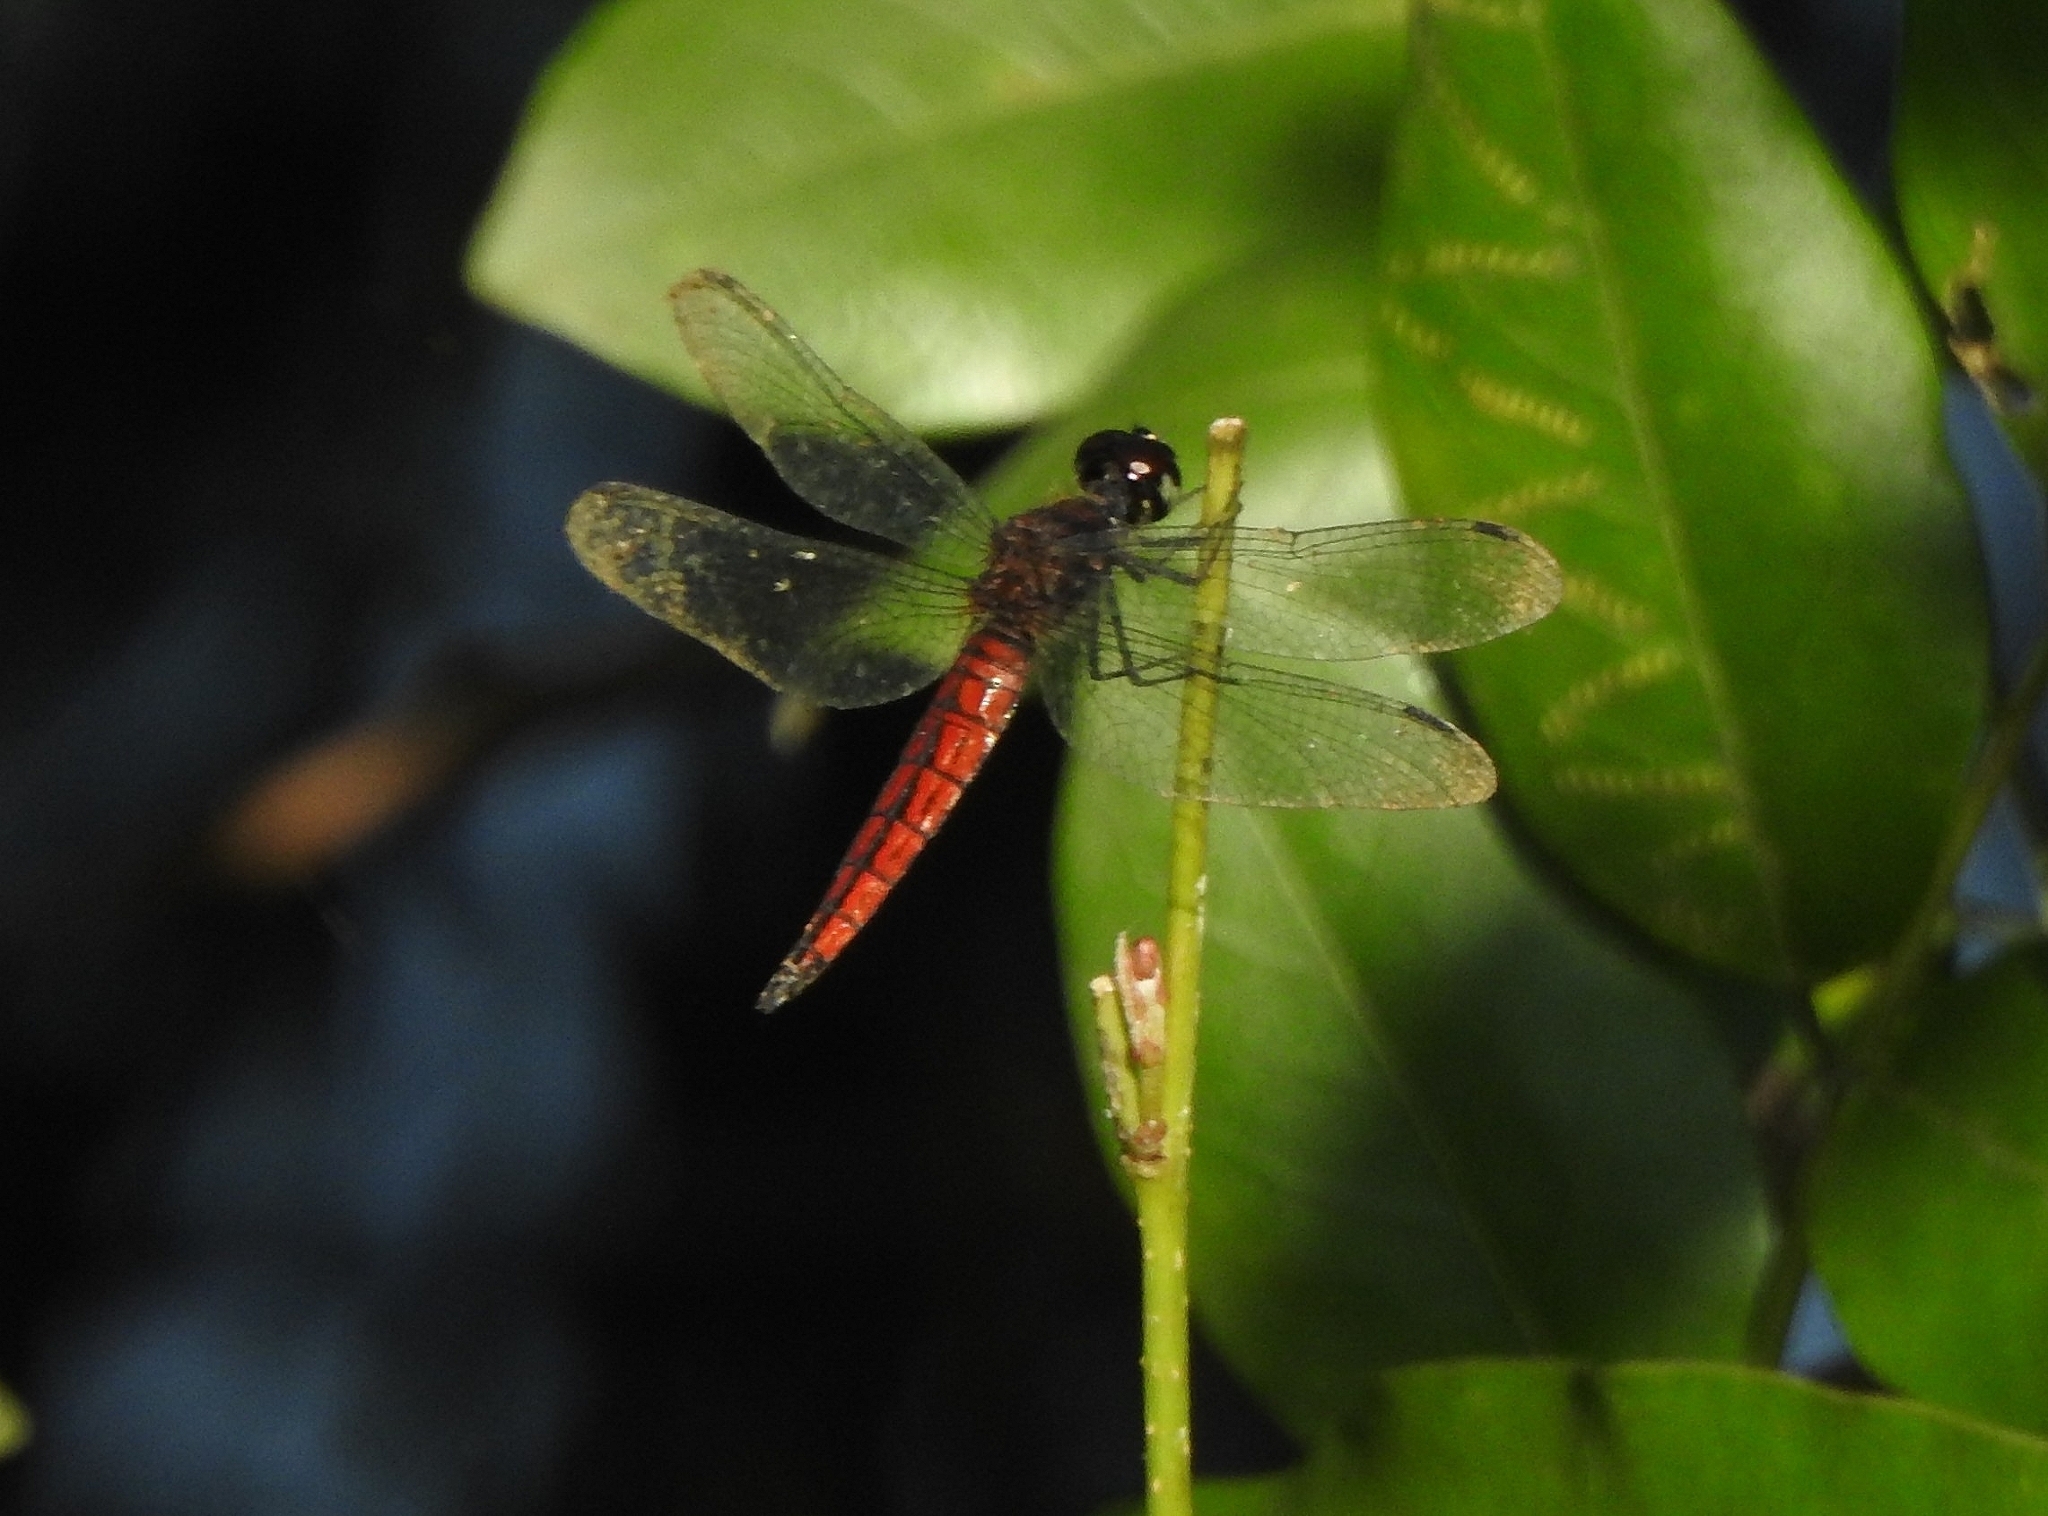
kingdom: Animalia
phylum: Arthropoda
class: Insecta
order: Odonata
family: Libellulidae
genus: Lyriothemis
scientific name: Lyriothemis acigastra
